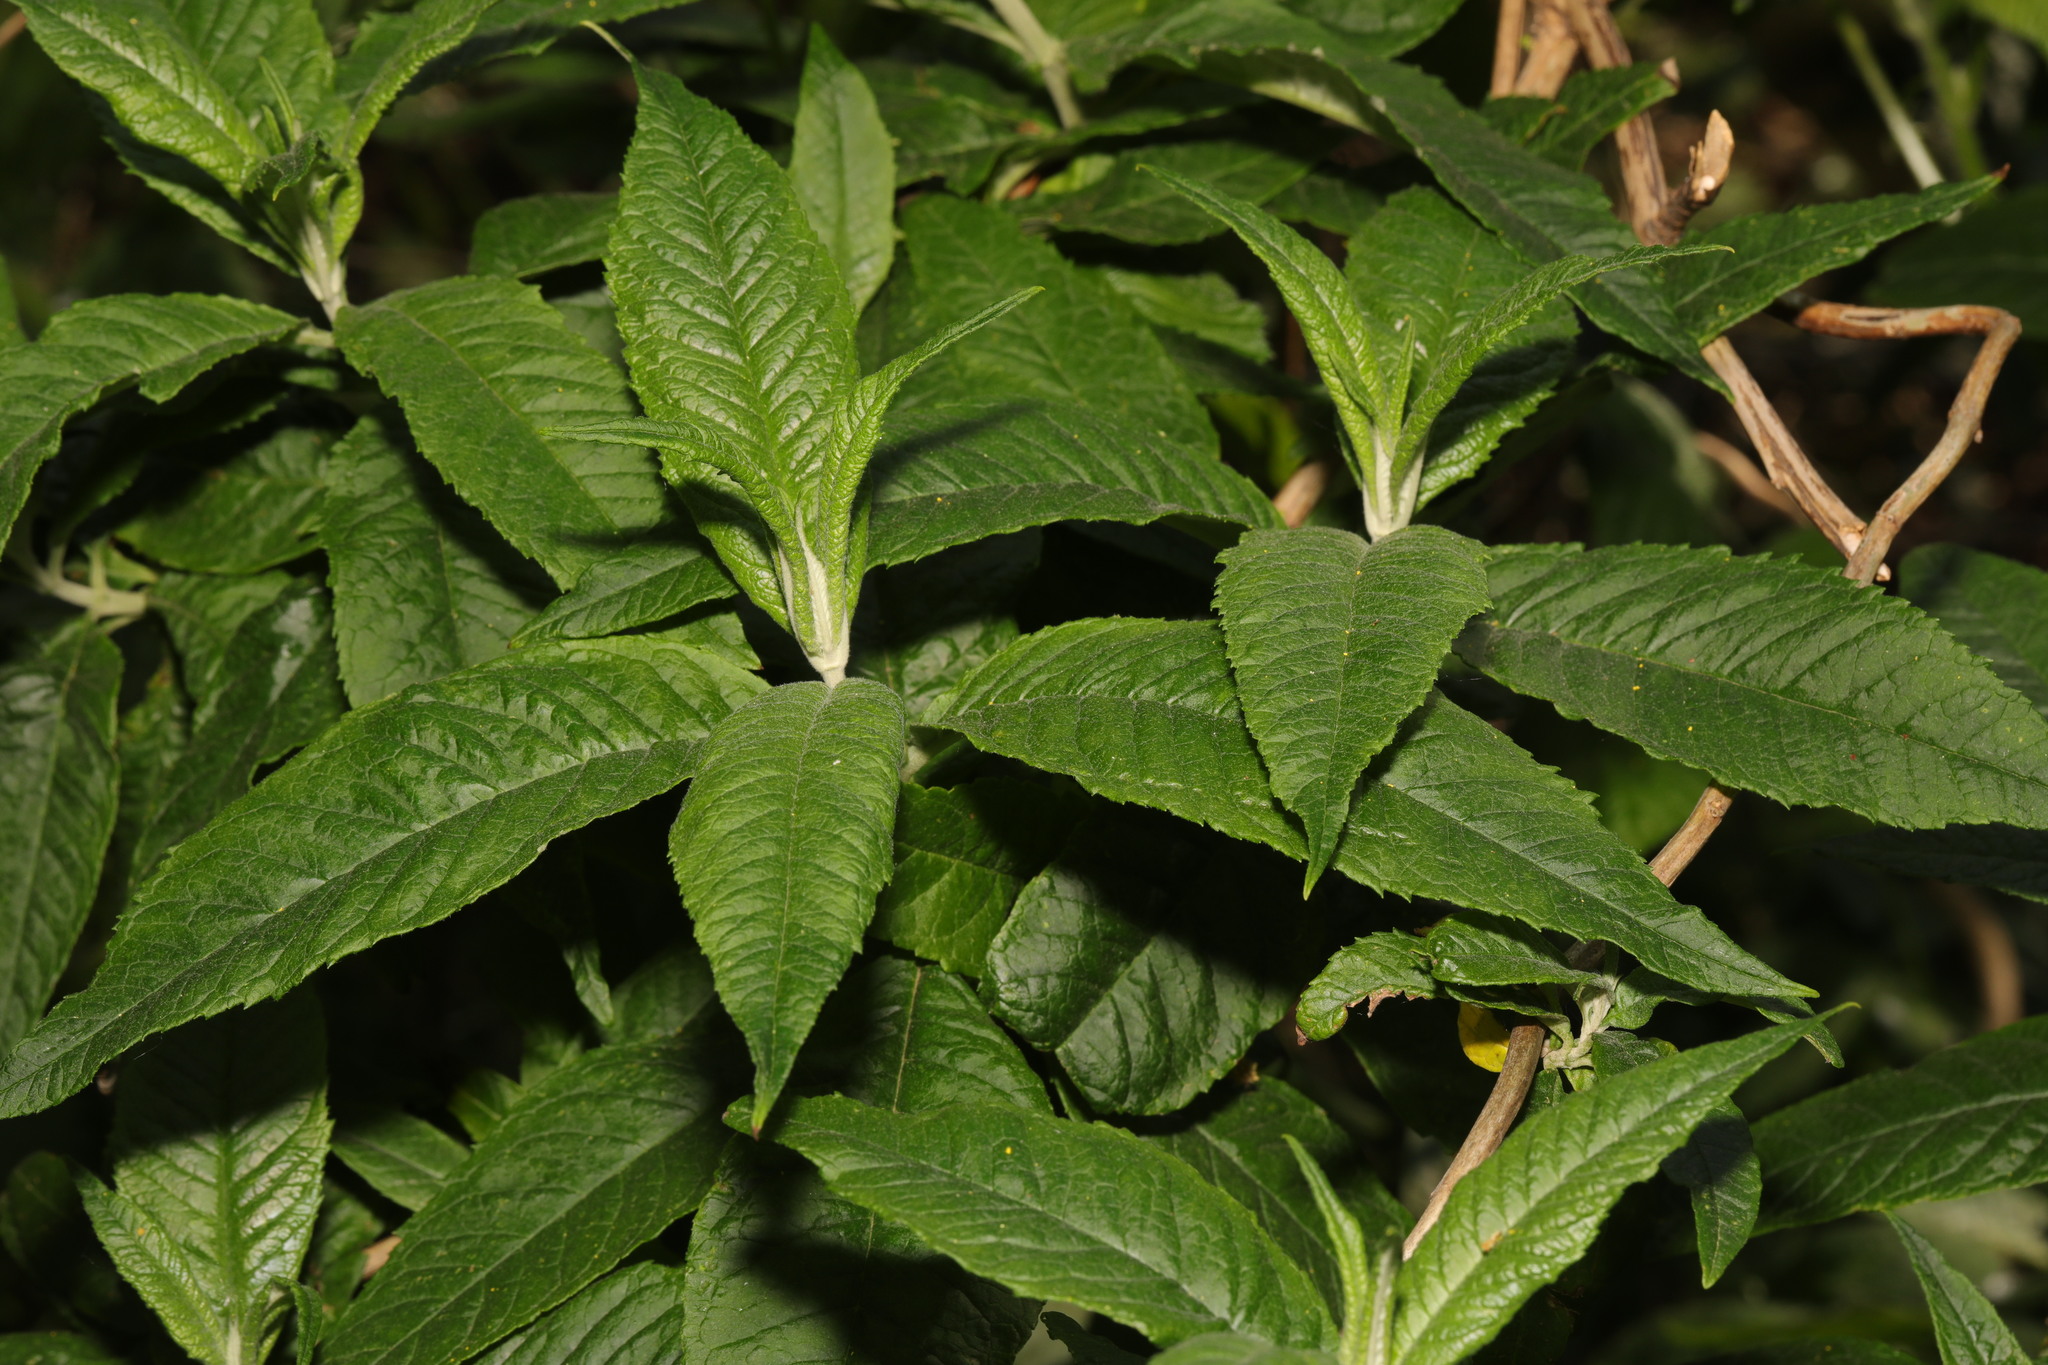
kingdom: Plantae
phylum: Tracheophyta
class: Magnoliopsida
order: Lamiales
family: Scrophulariaceae
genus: Buddleja
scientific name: Buddleja davidii
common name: Butterfly-bush
